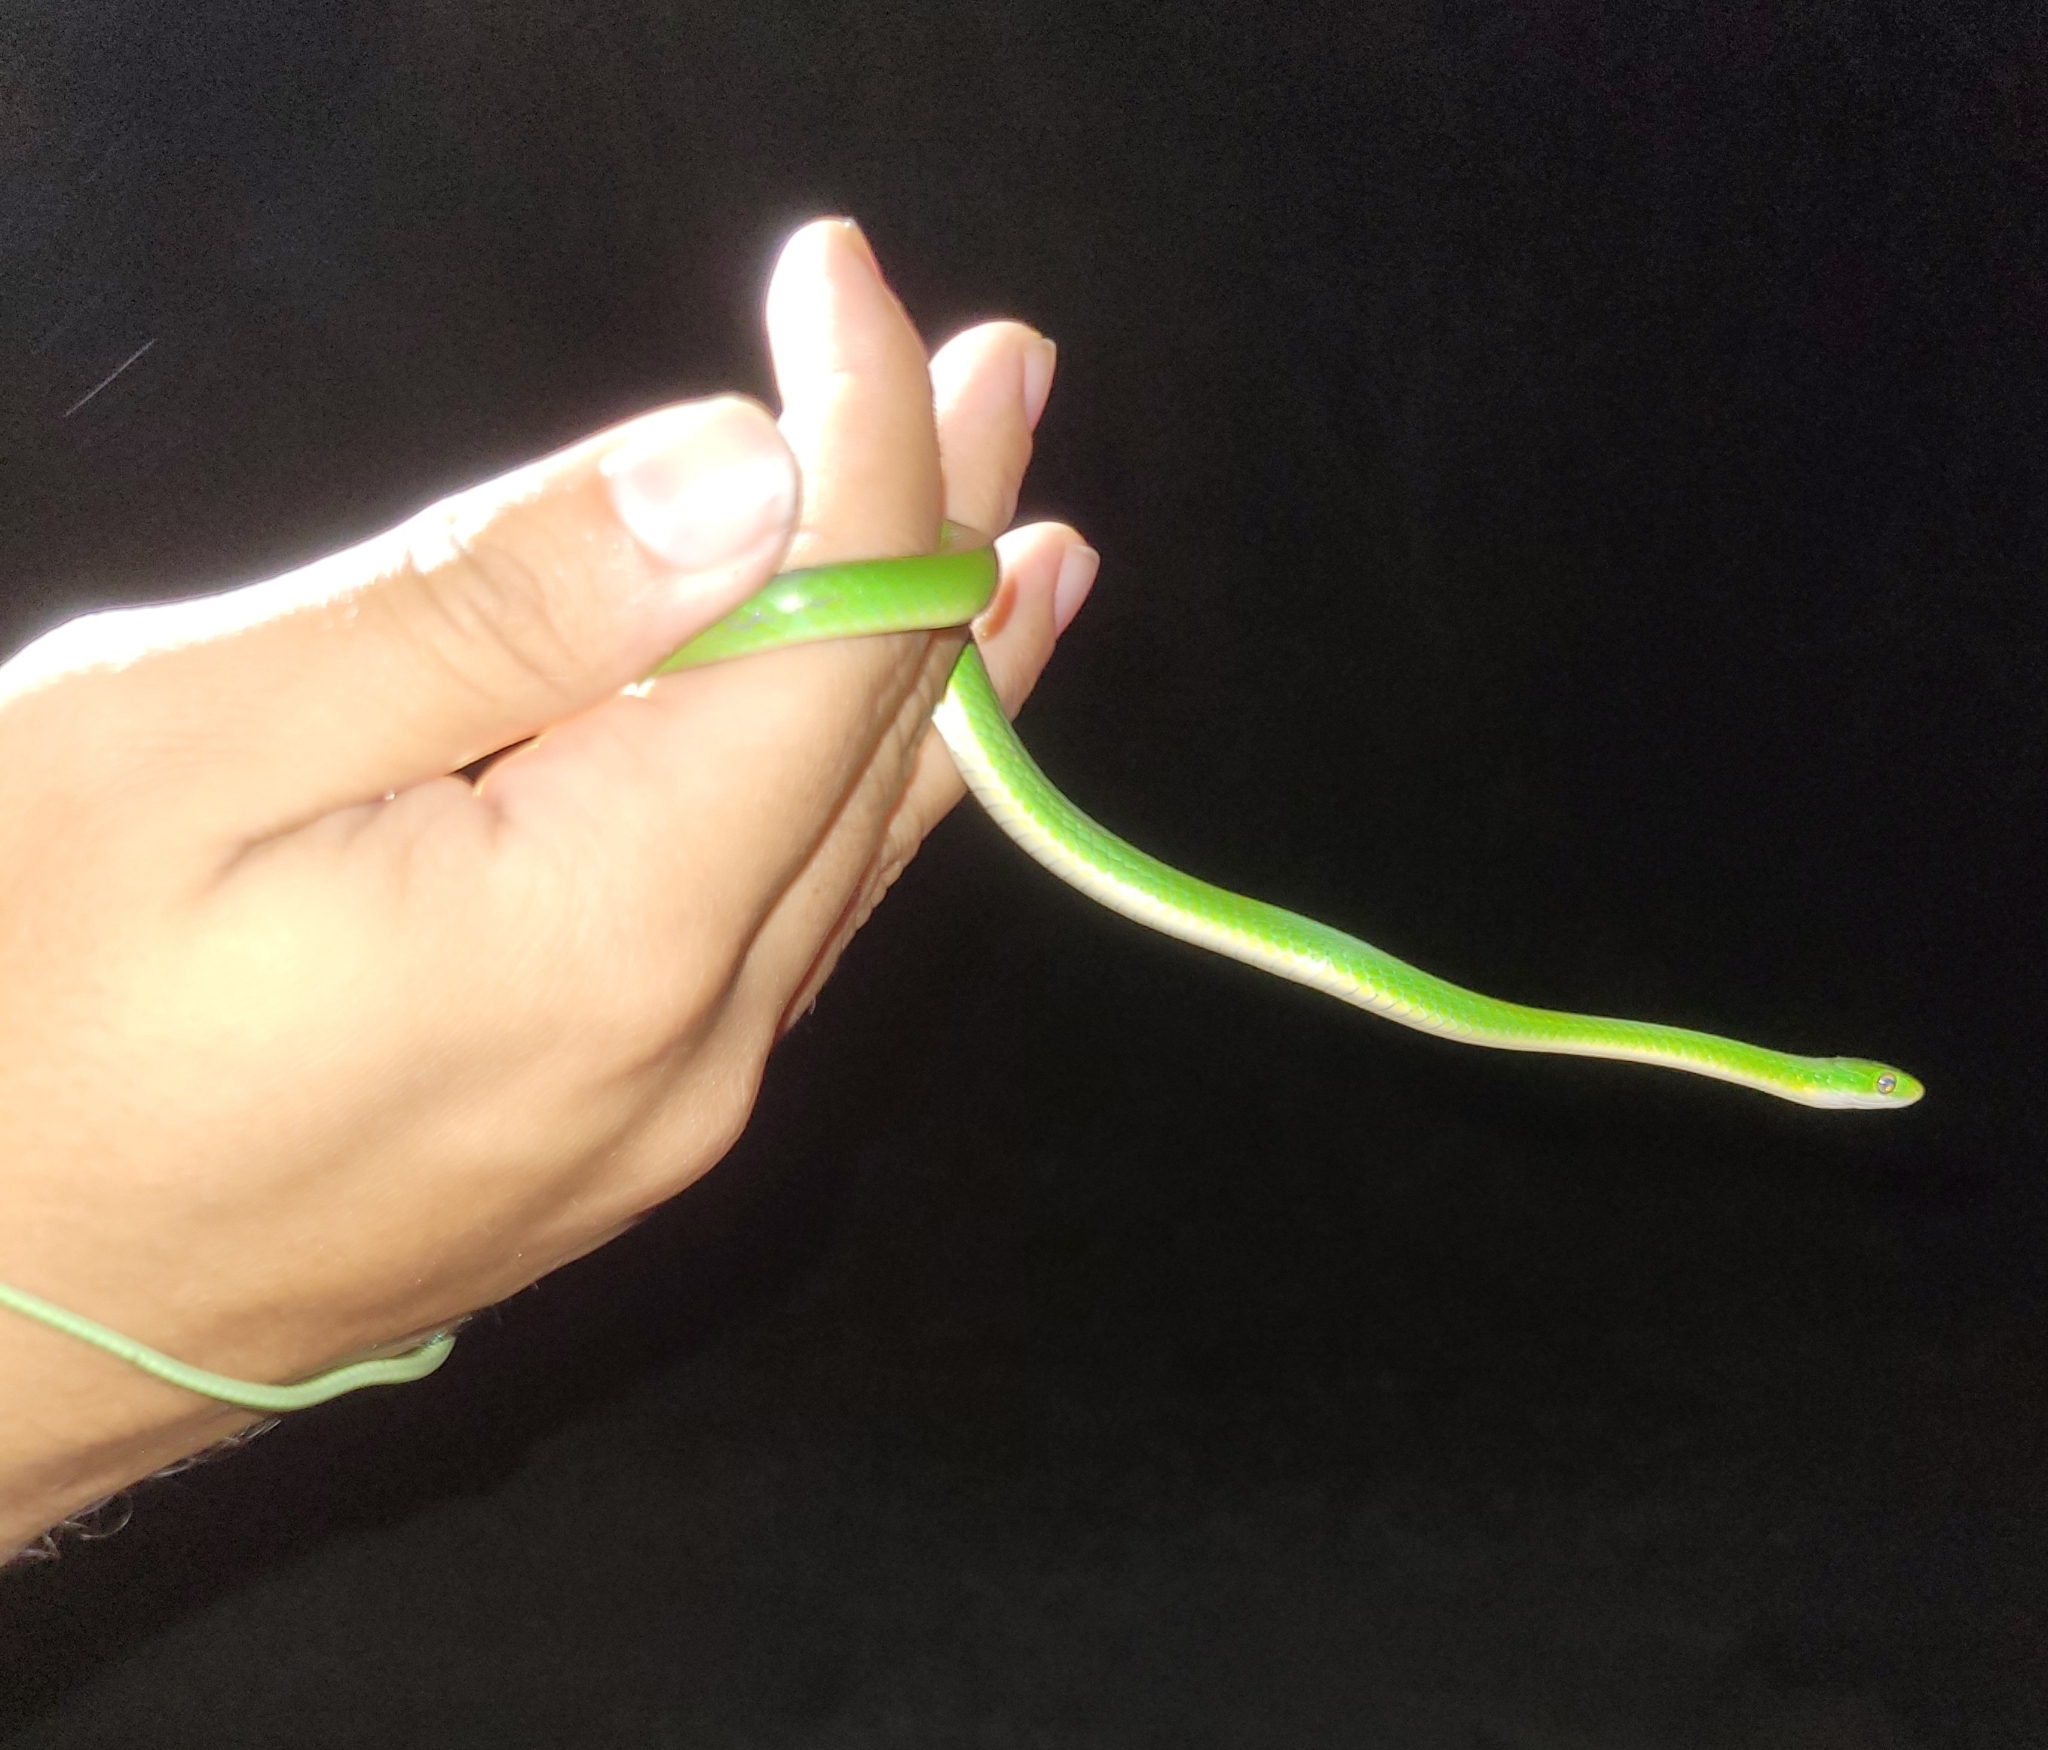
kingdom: Animalia
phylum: Chordata
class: Squamata
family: Colubridae
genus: Philothamnus
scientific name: Philothamnus hoplogaster
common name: Green water snake
